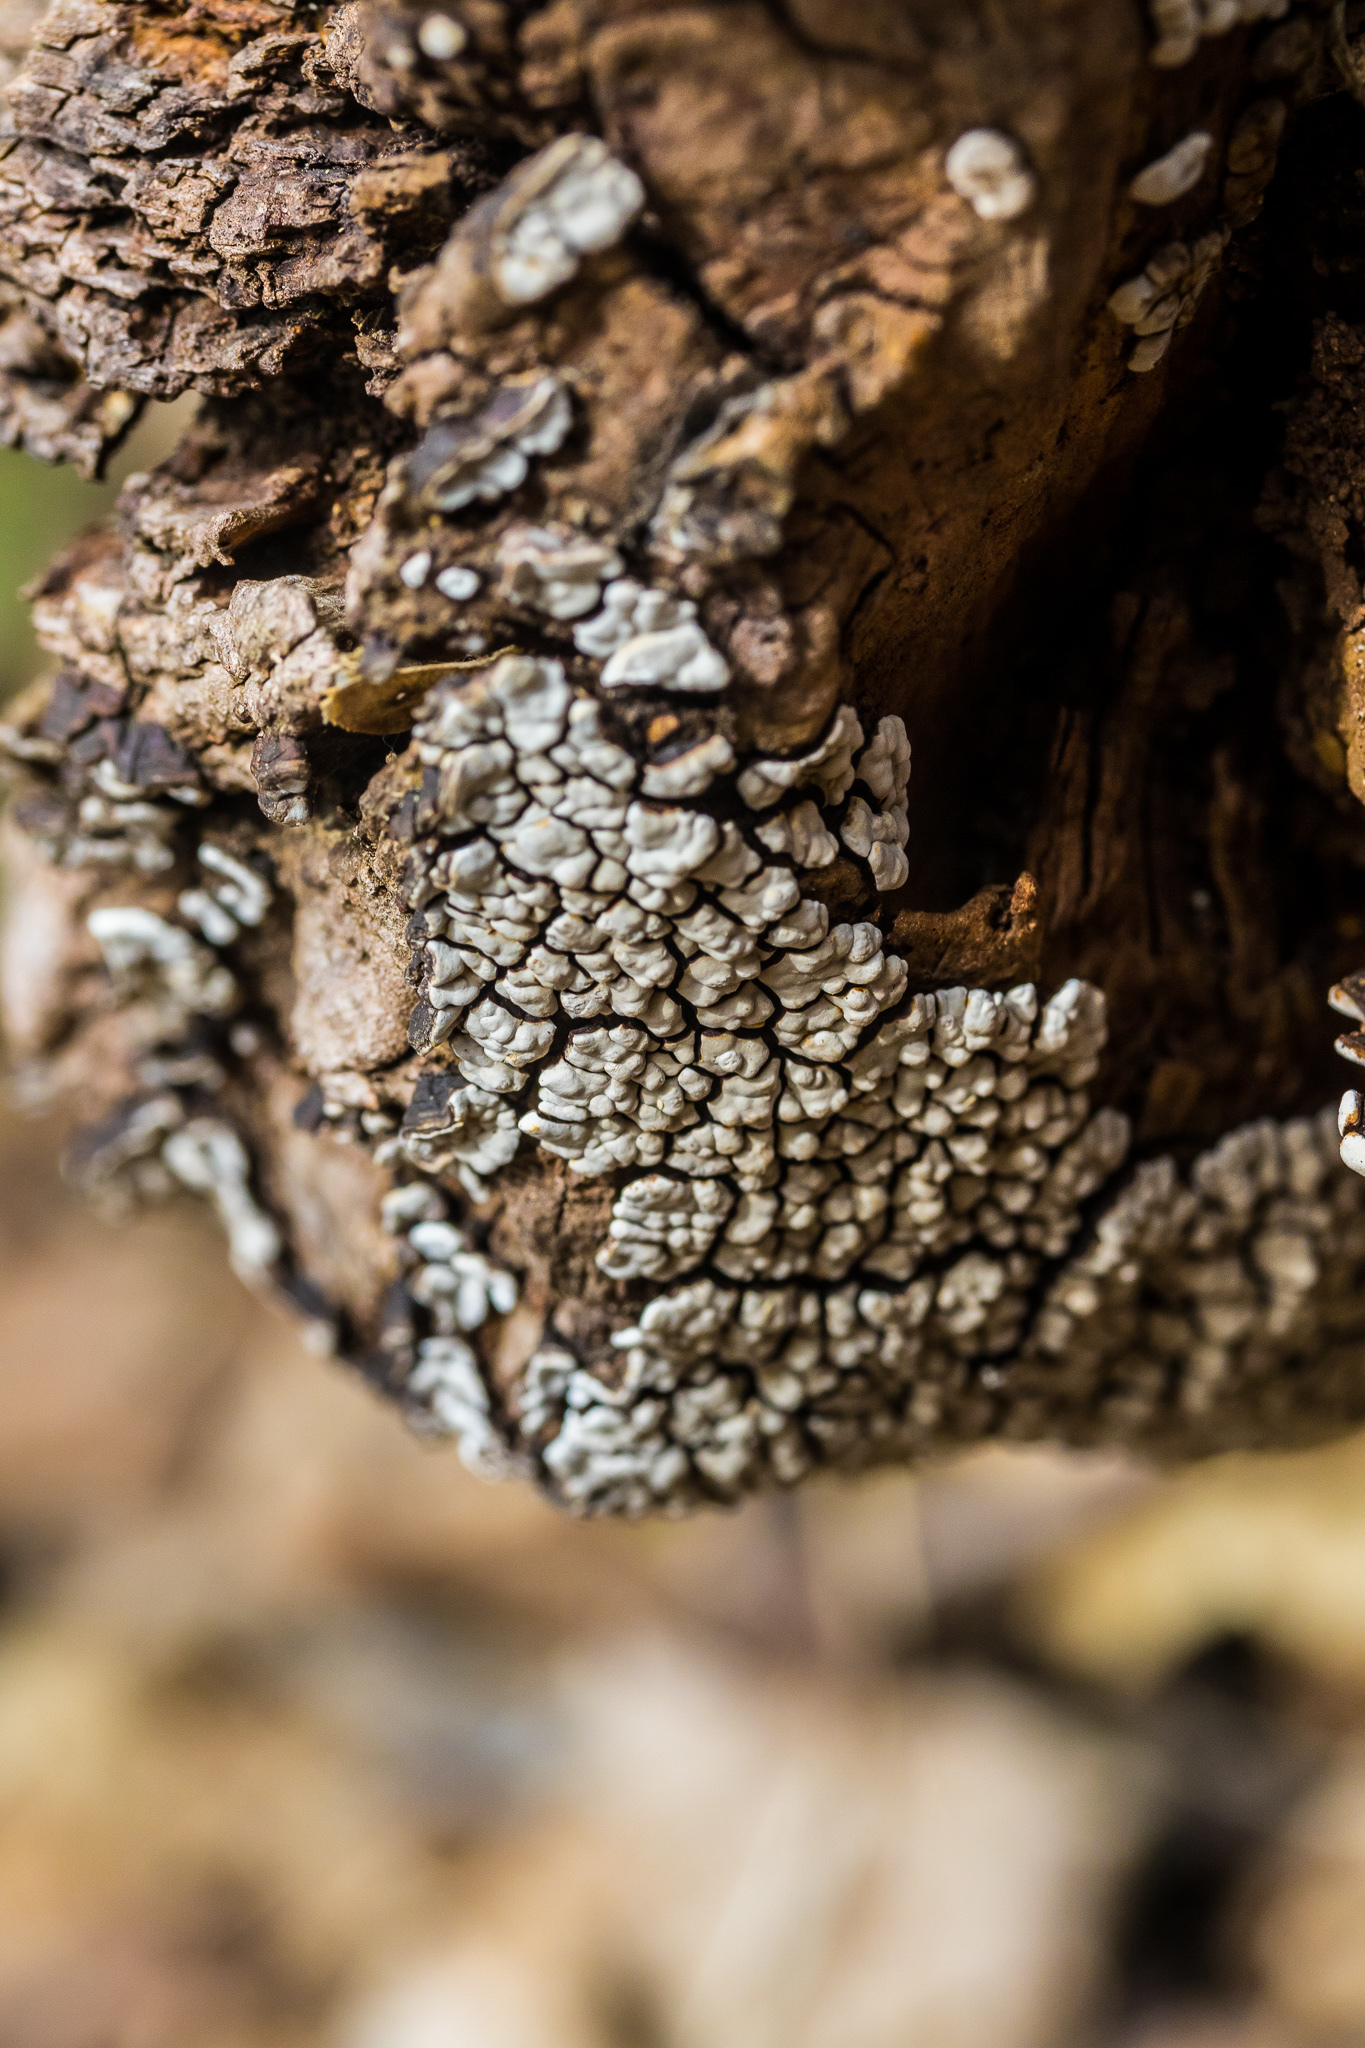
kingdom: Fungi
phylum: Basidiomycota
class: Agaricomycetes
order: Russulales
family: Stereaceae
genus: Xylobolus
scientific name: Xylobolus frustulatus
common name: Ceramic parchment
